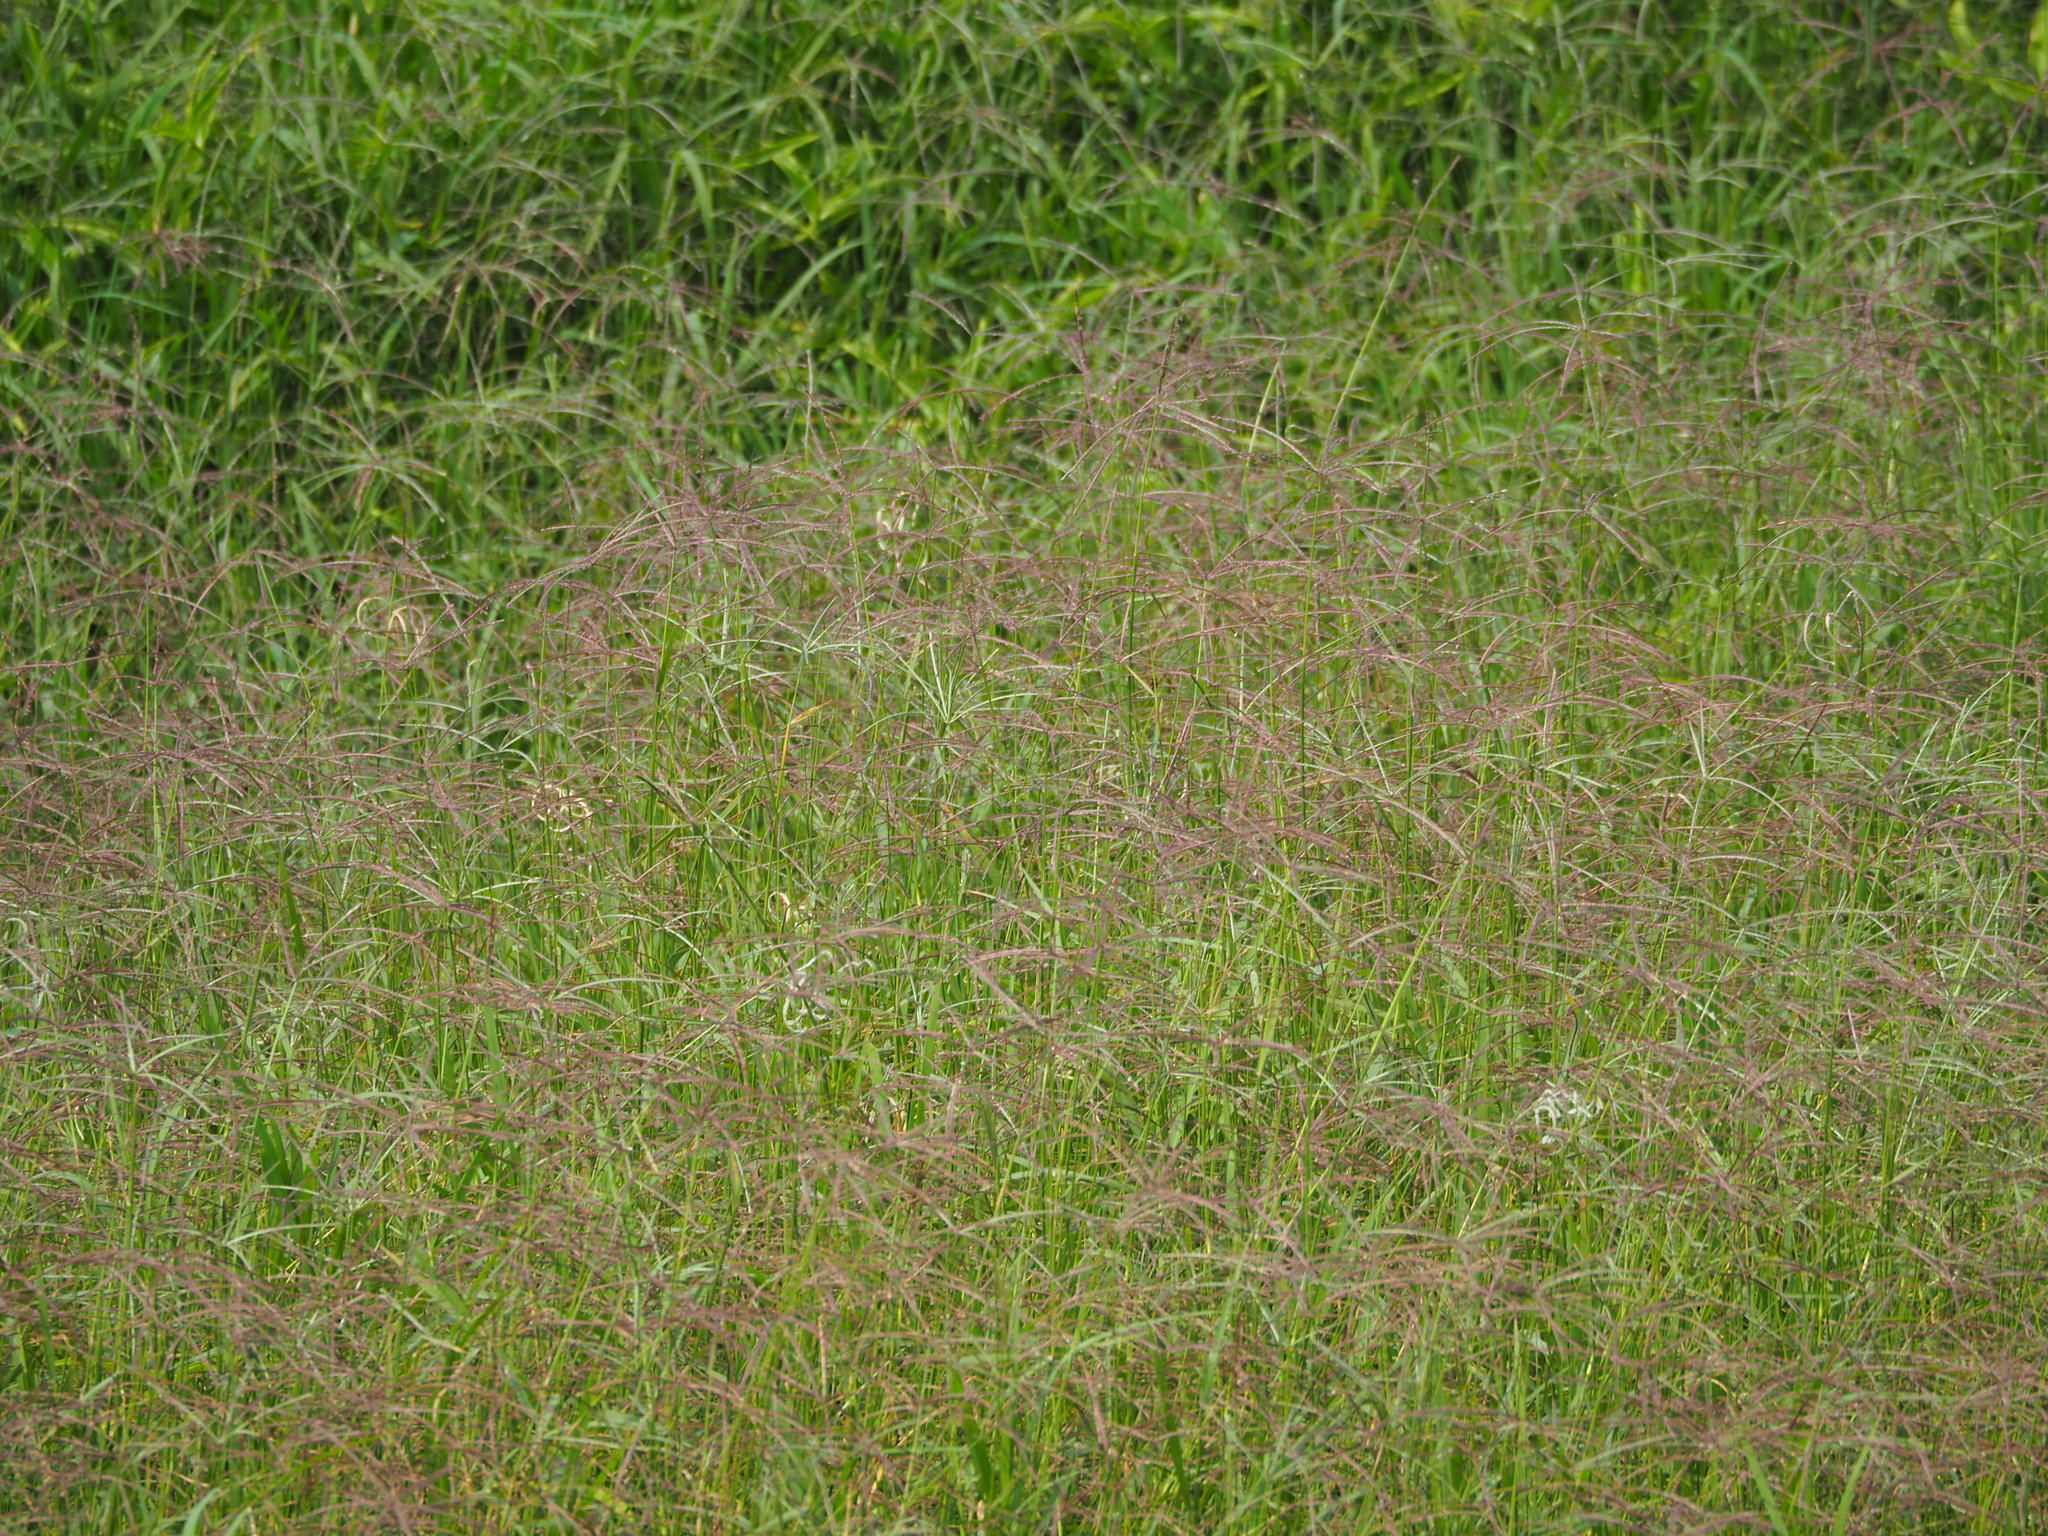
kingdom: Plantae
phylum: Tracheophyta
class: Liliopsida
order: Poales
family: Poaceae
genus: Cynodon
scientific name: Cynodon nlemfuensis
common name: African bermudagrass
